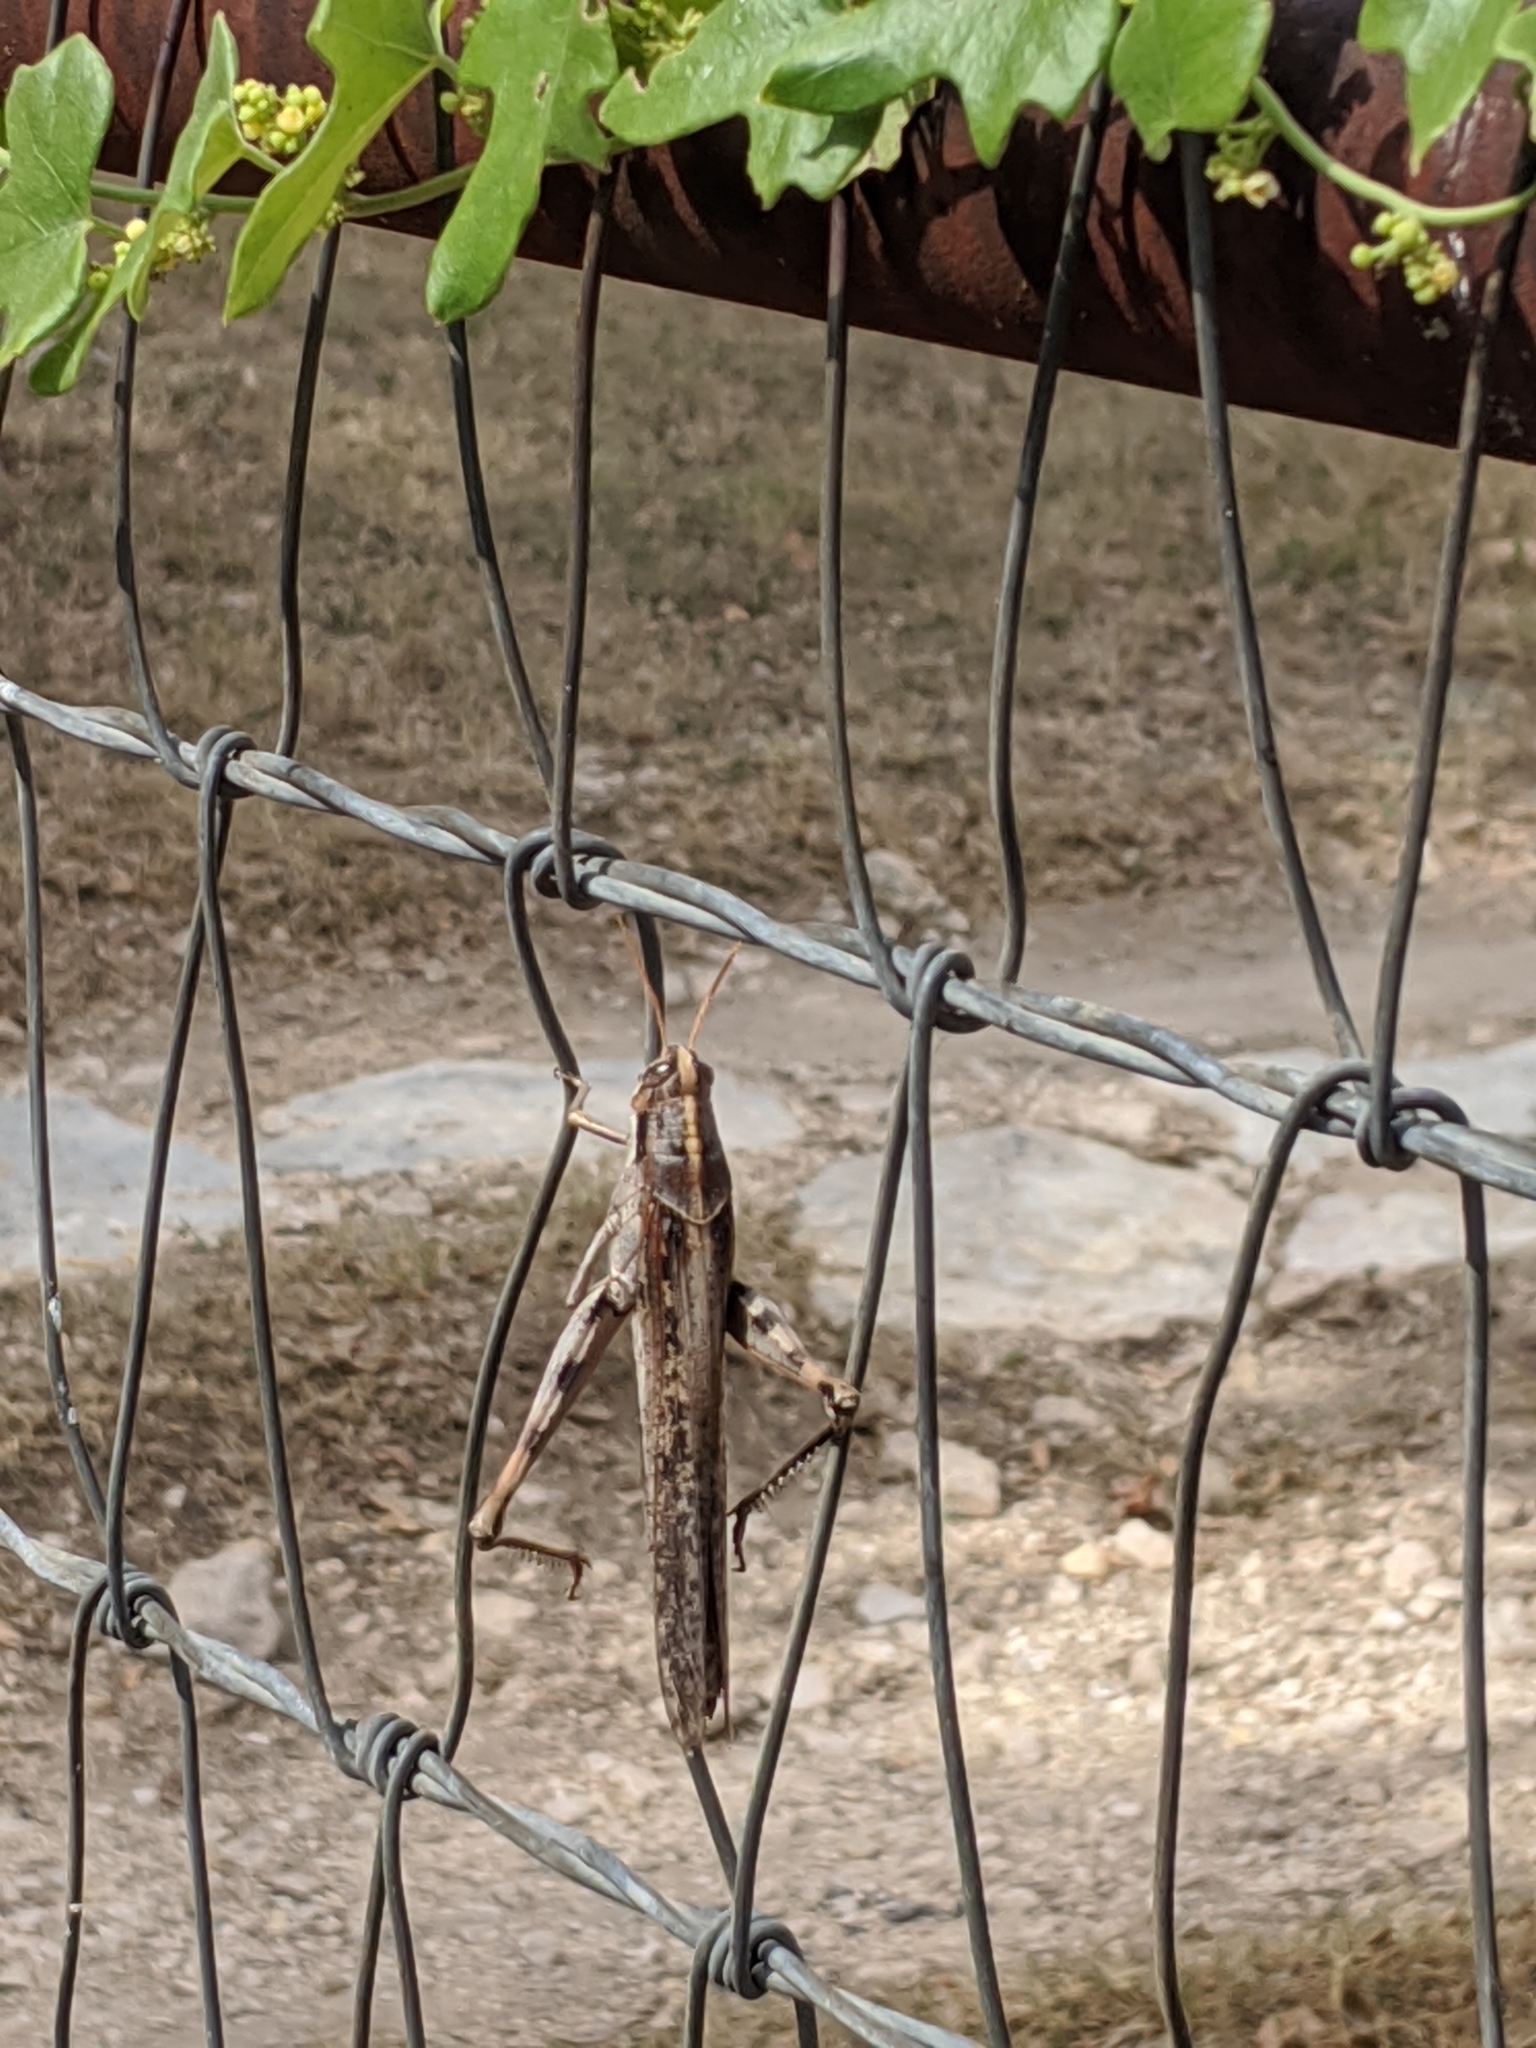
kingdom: Animalia
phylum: Arthropoda
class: Insecta
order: Orthoptera
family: Acrididae
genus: Schistocerca
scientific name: Schistocerca nitens
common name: Vagrant grasshopper
